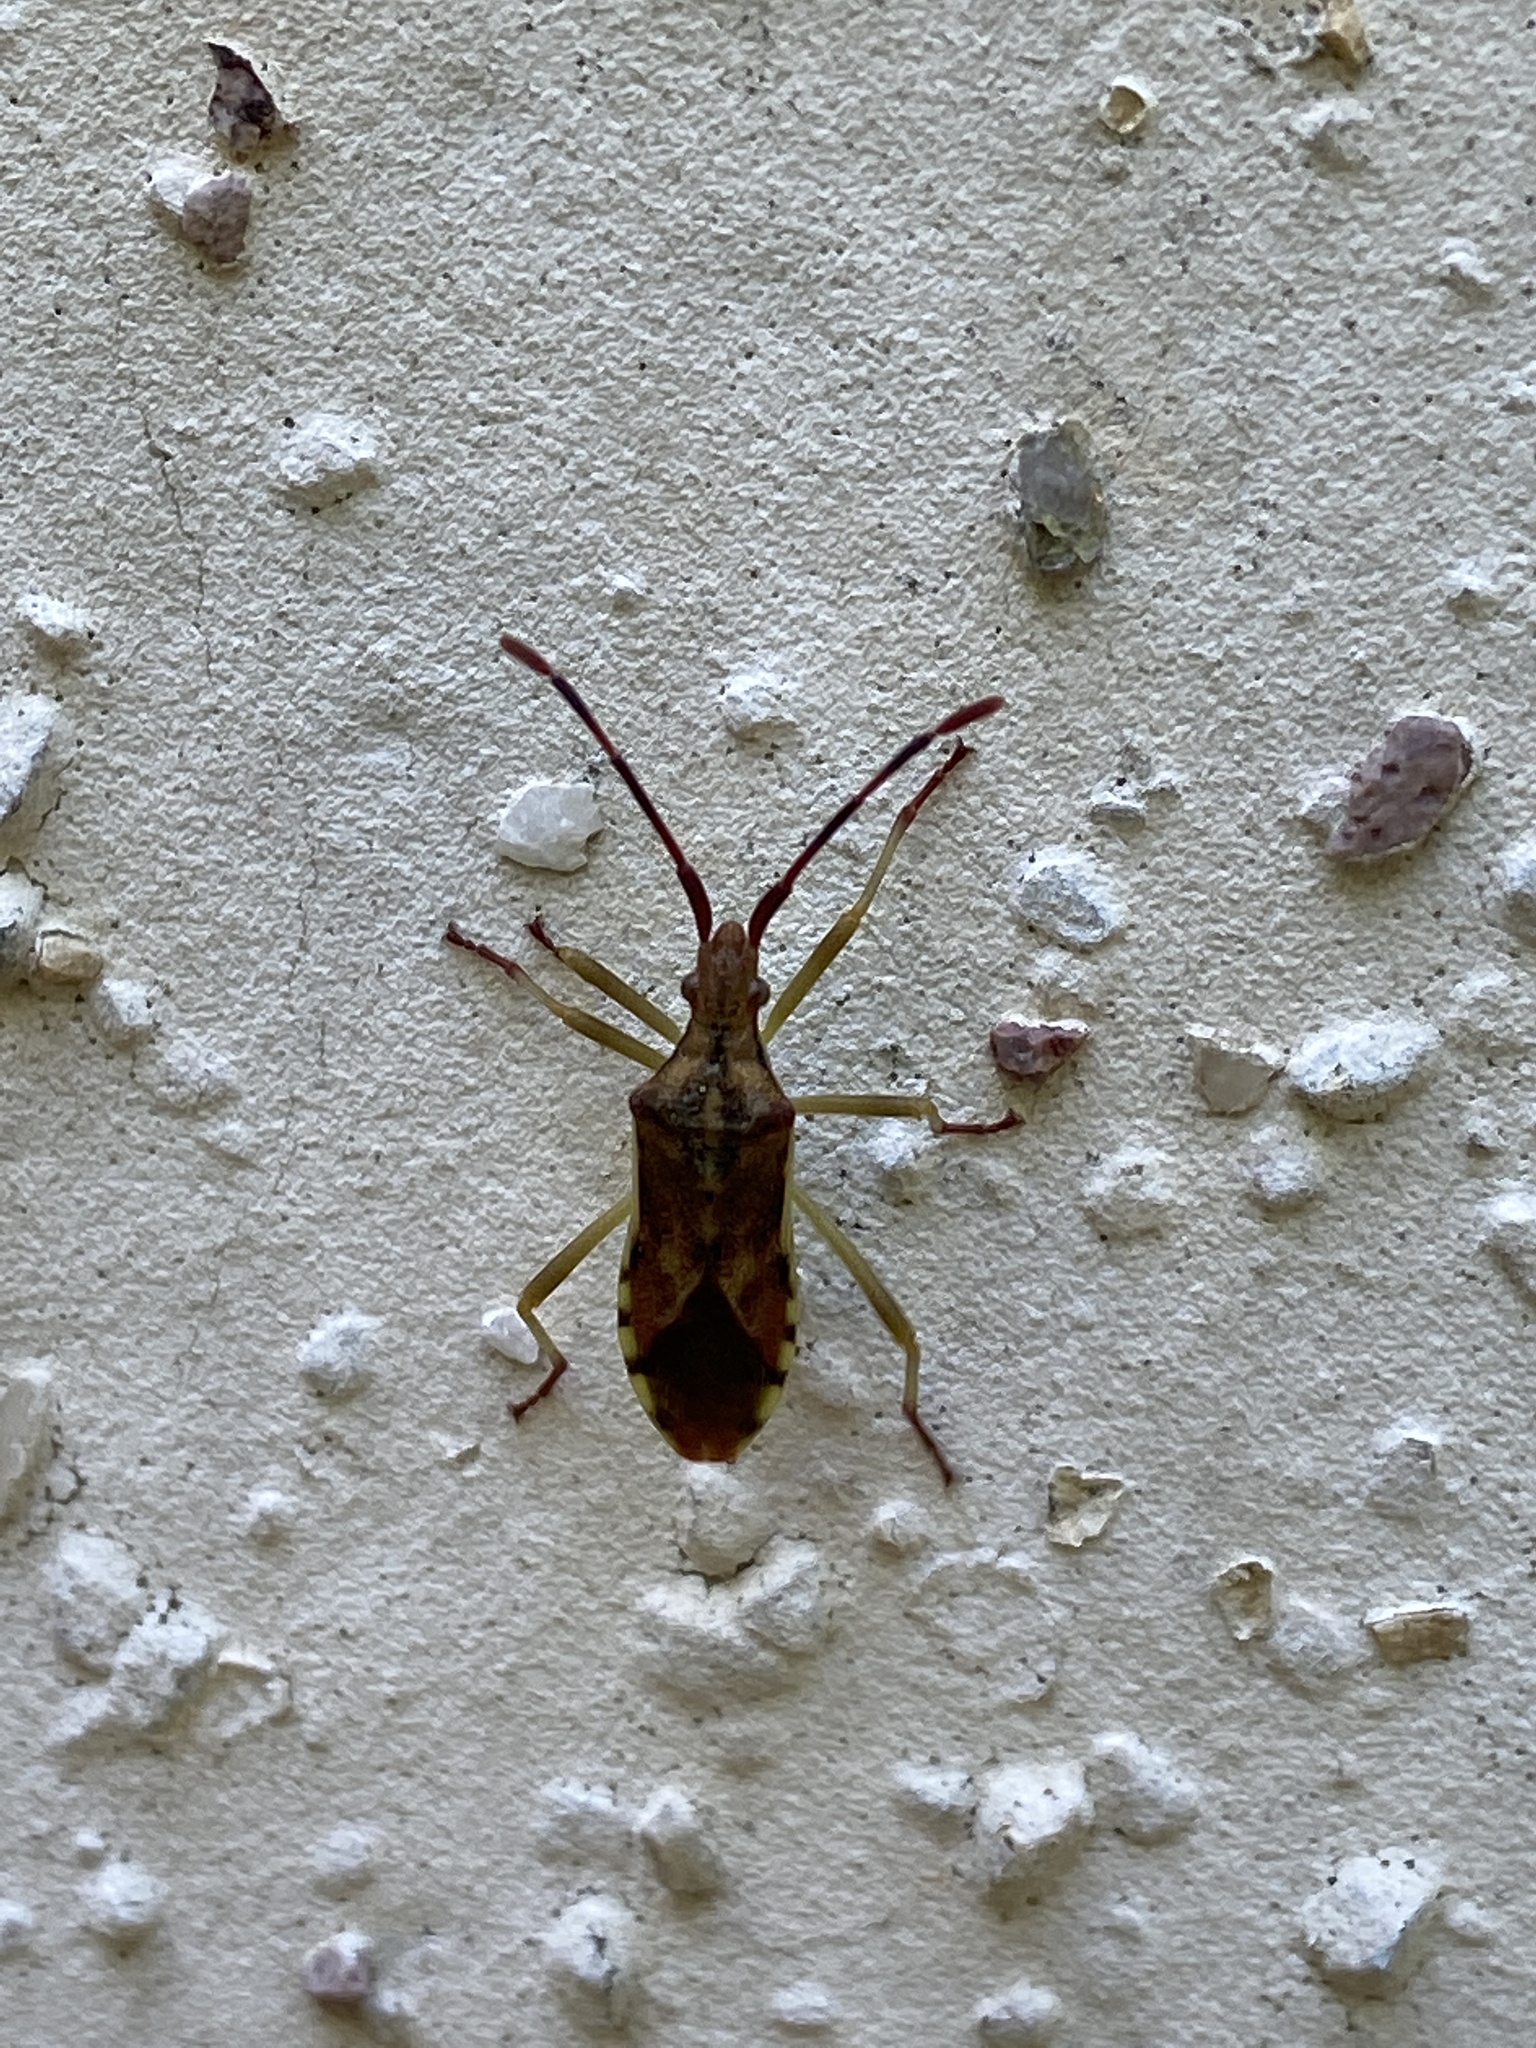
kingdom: Animalia
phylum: Arthropoda
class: Insecta
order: Hemiptera
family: Coreidae
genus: Gonocerus
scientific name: Gonocerus juniperi
